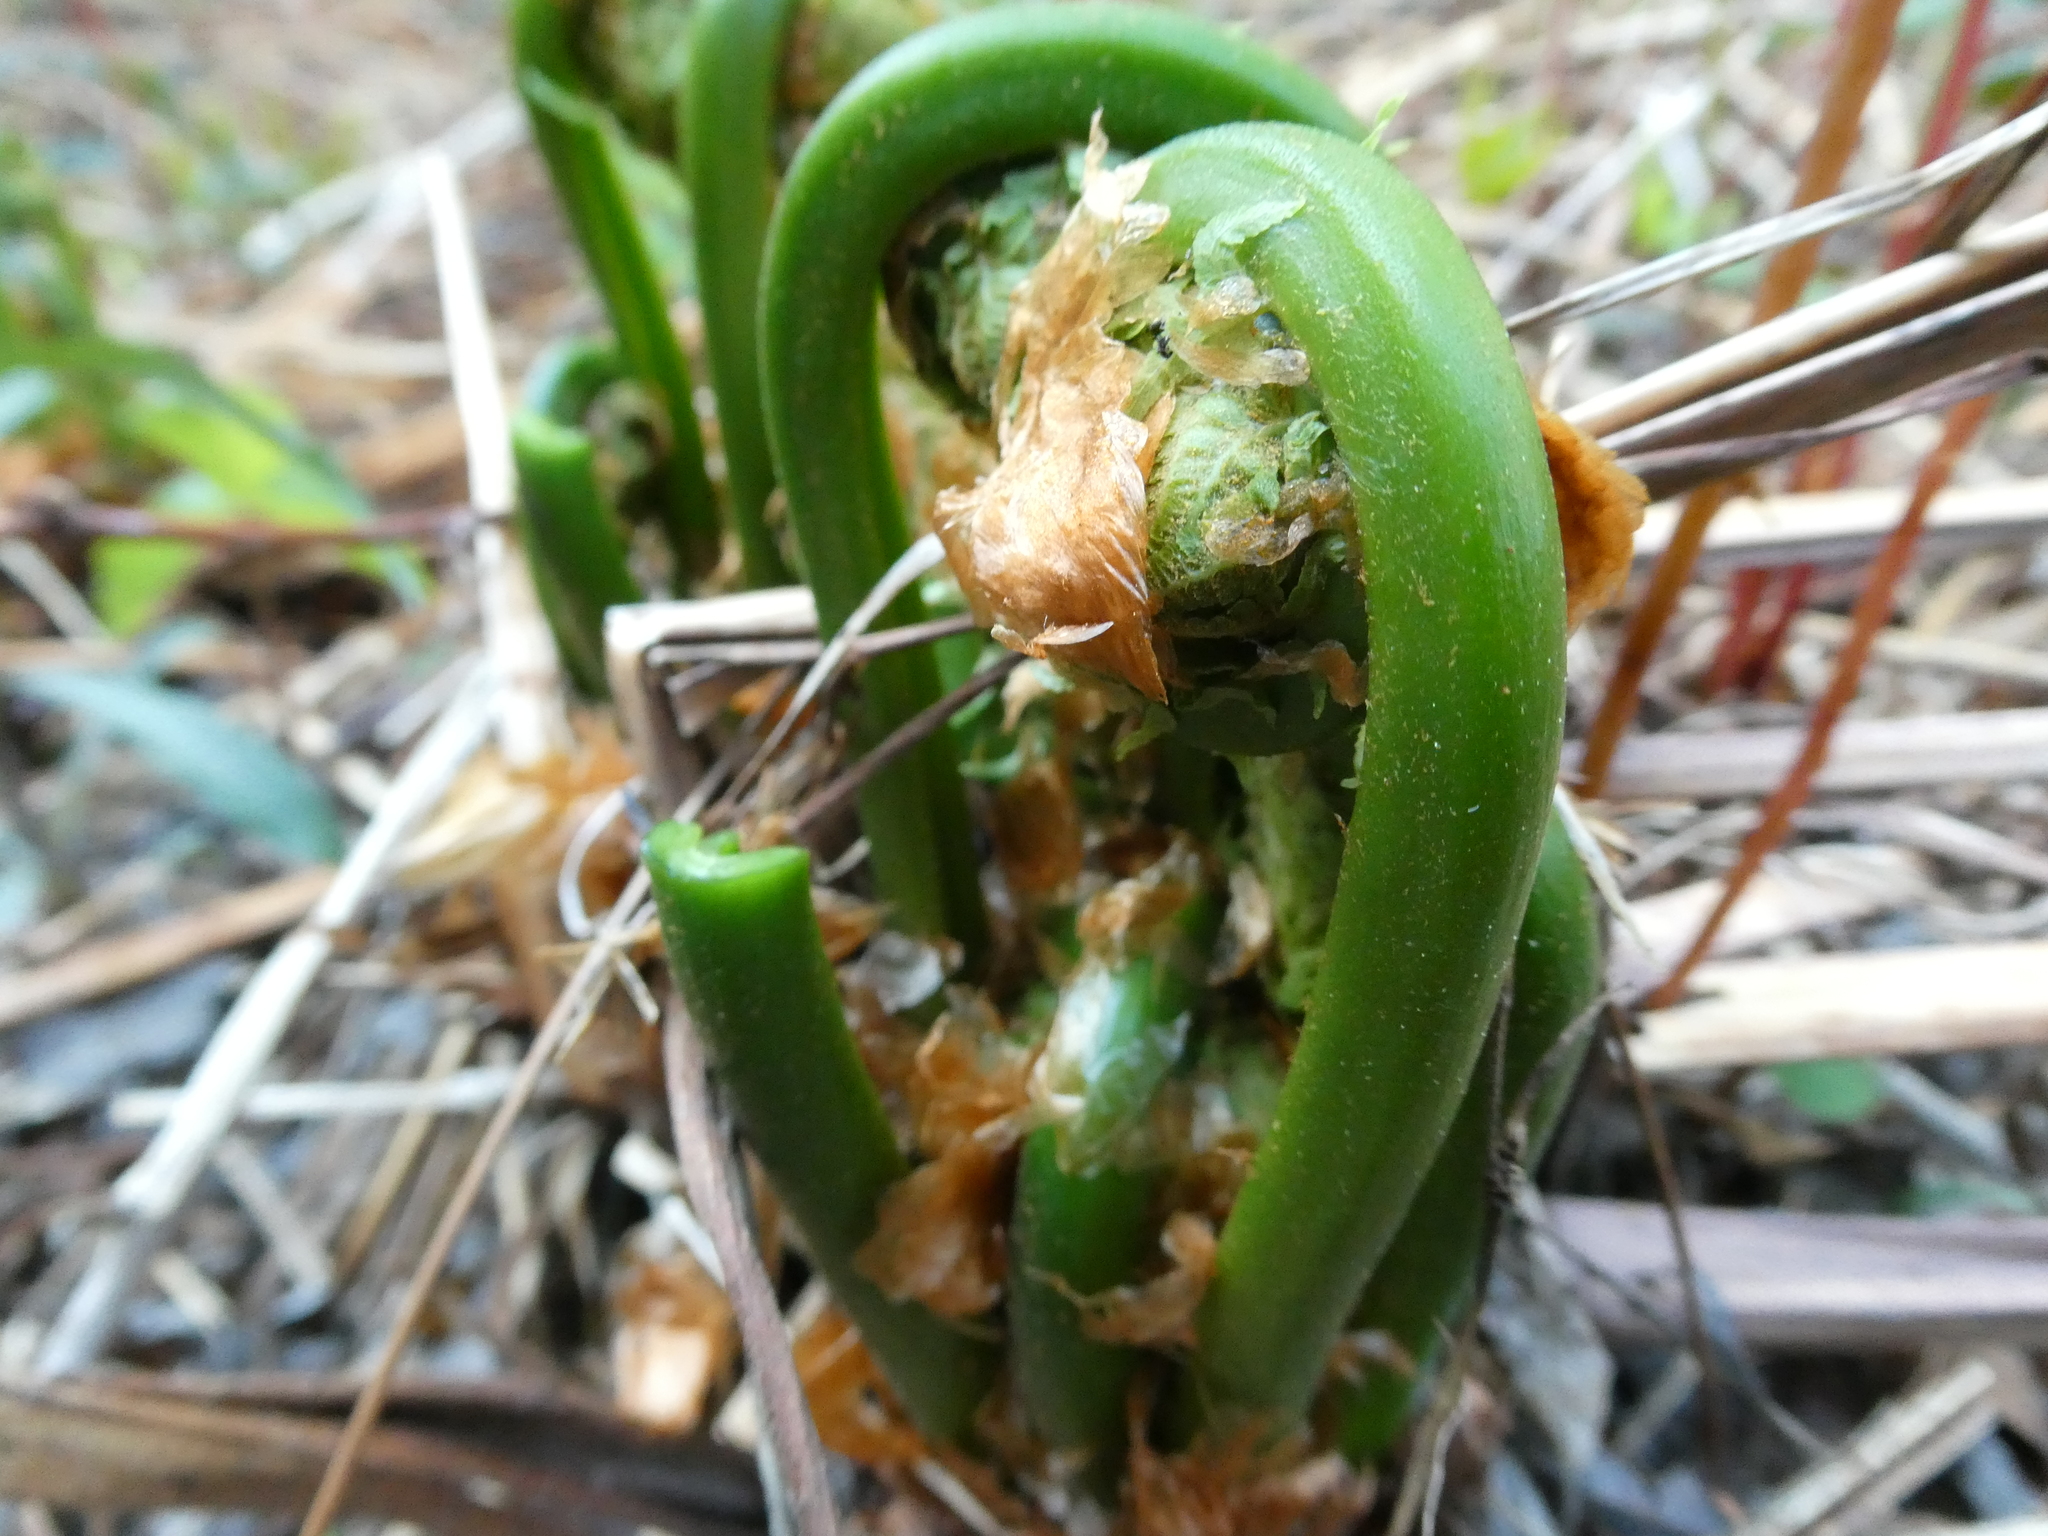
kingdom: Plantae
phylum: Tracheophyta
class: Polypodiopsida
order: Polypodiales
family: Onocleaceae
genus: Matteuccia
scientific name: Matteuccia struthiopteris
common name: Ostrich fern
